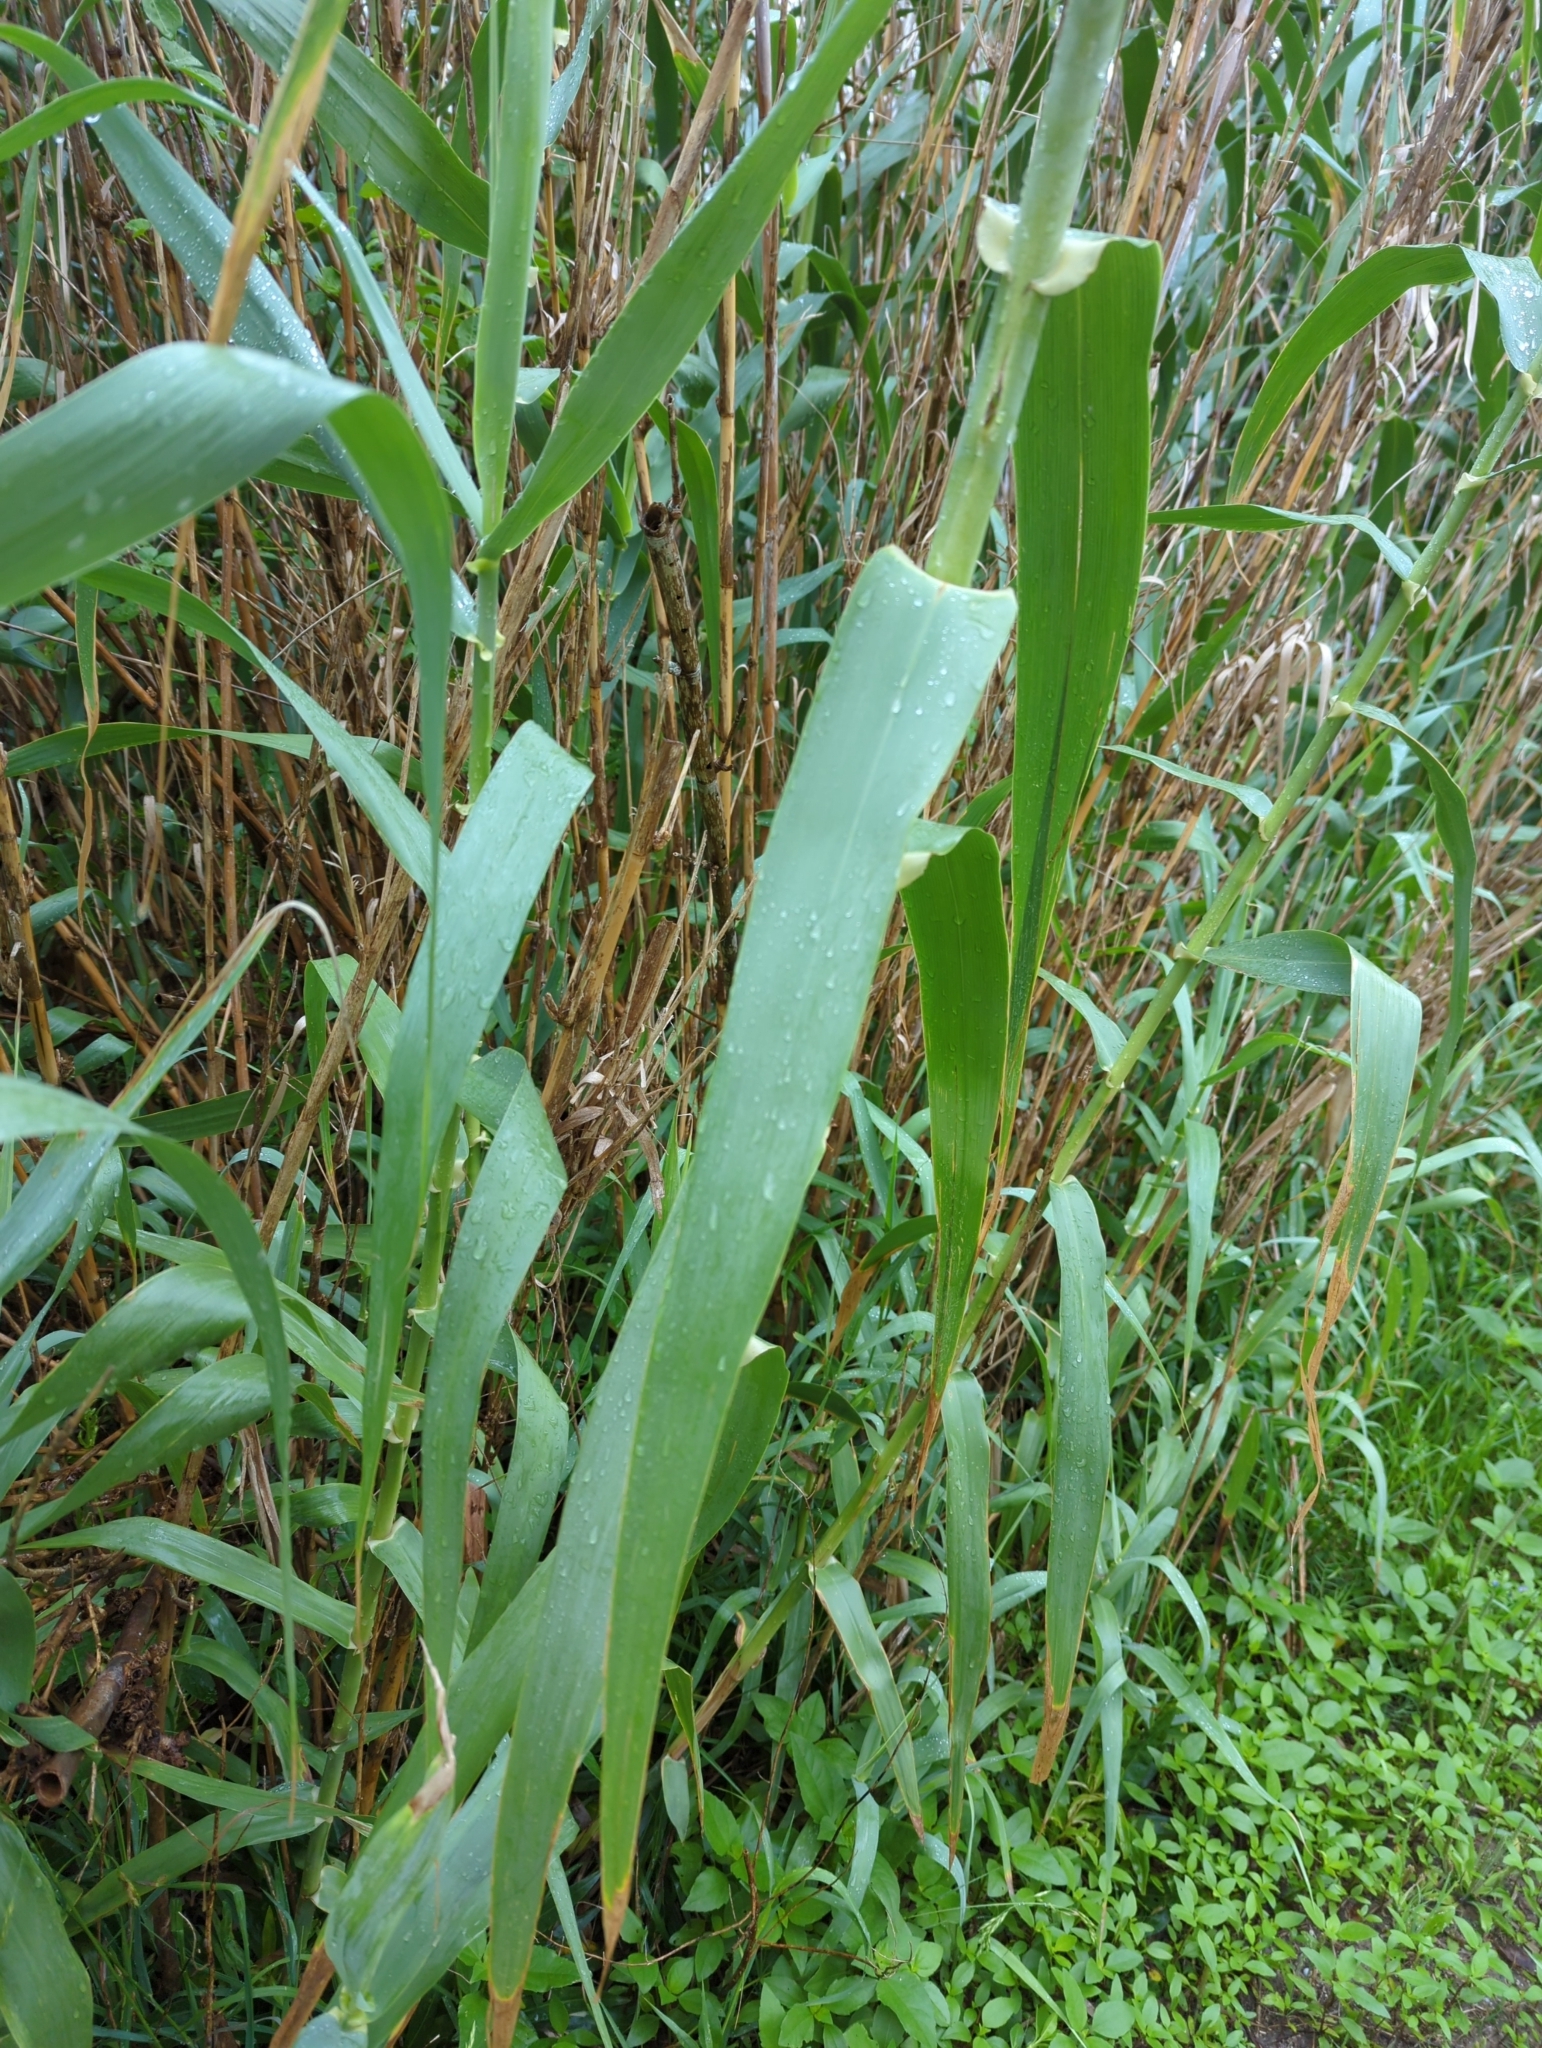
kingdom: Plantae
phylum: Tracheophyta
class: Liliopsida
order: Poales
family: Poaceae
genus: Arundo
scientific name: Arundo donax
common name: Giant reed
